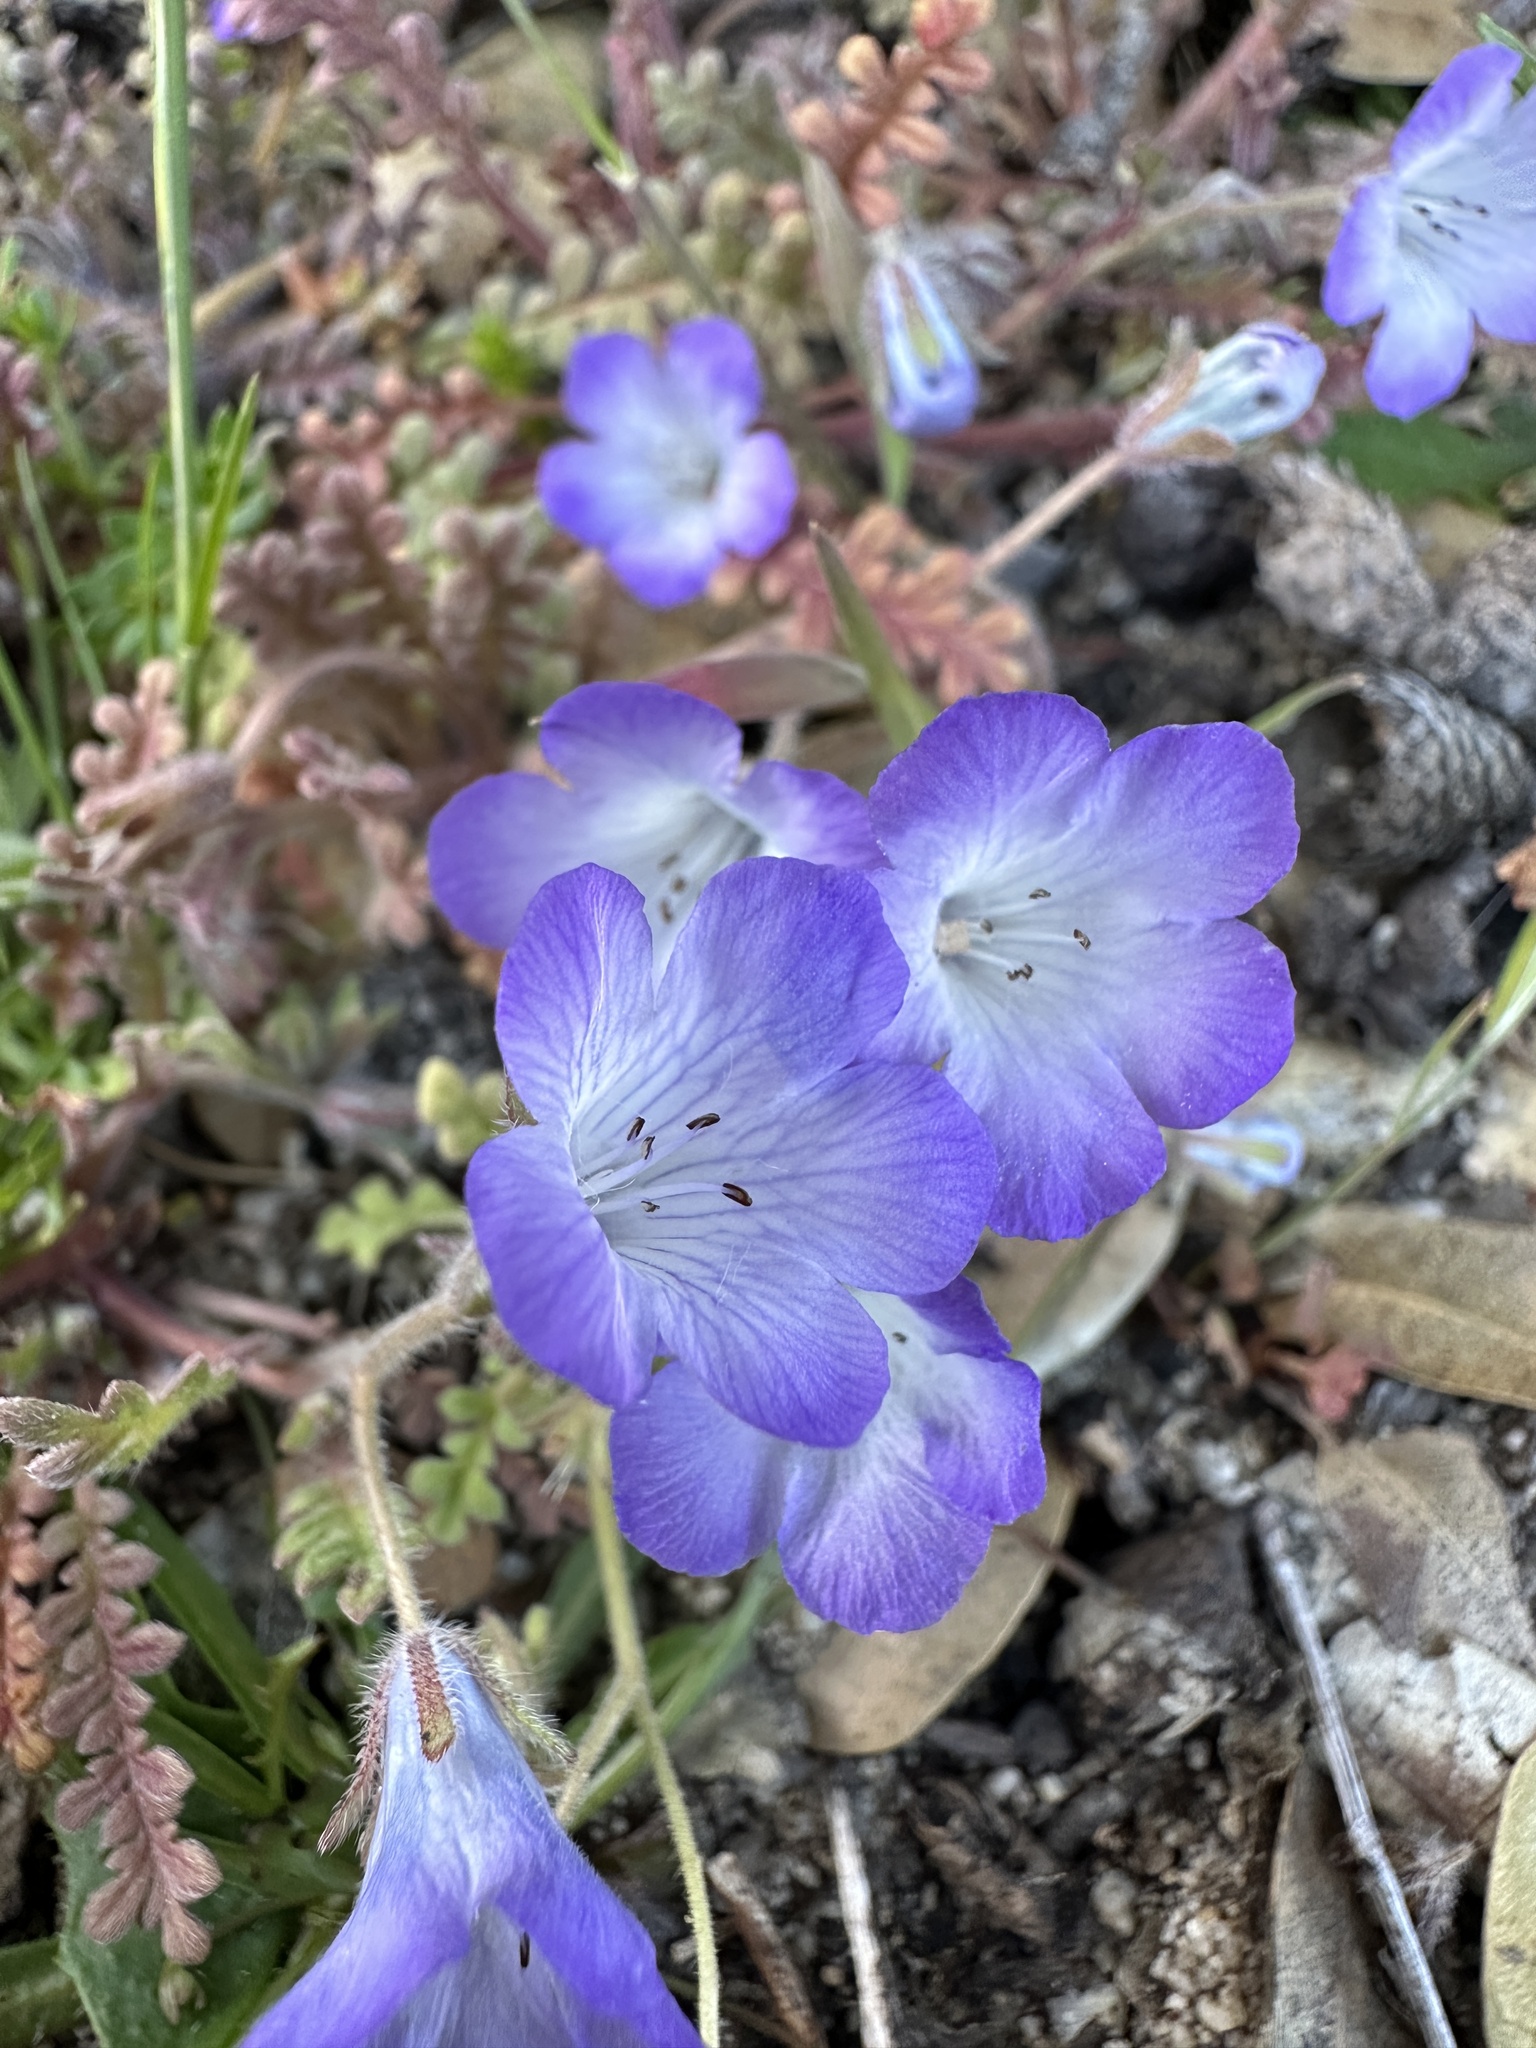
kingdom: Plantae
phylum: Tracheophyta
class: Magnoliopsida
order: Boraginales
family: Hydrophyllaceae
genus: Phacelia
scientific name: Phacelia douglasii
